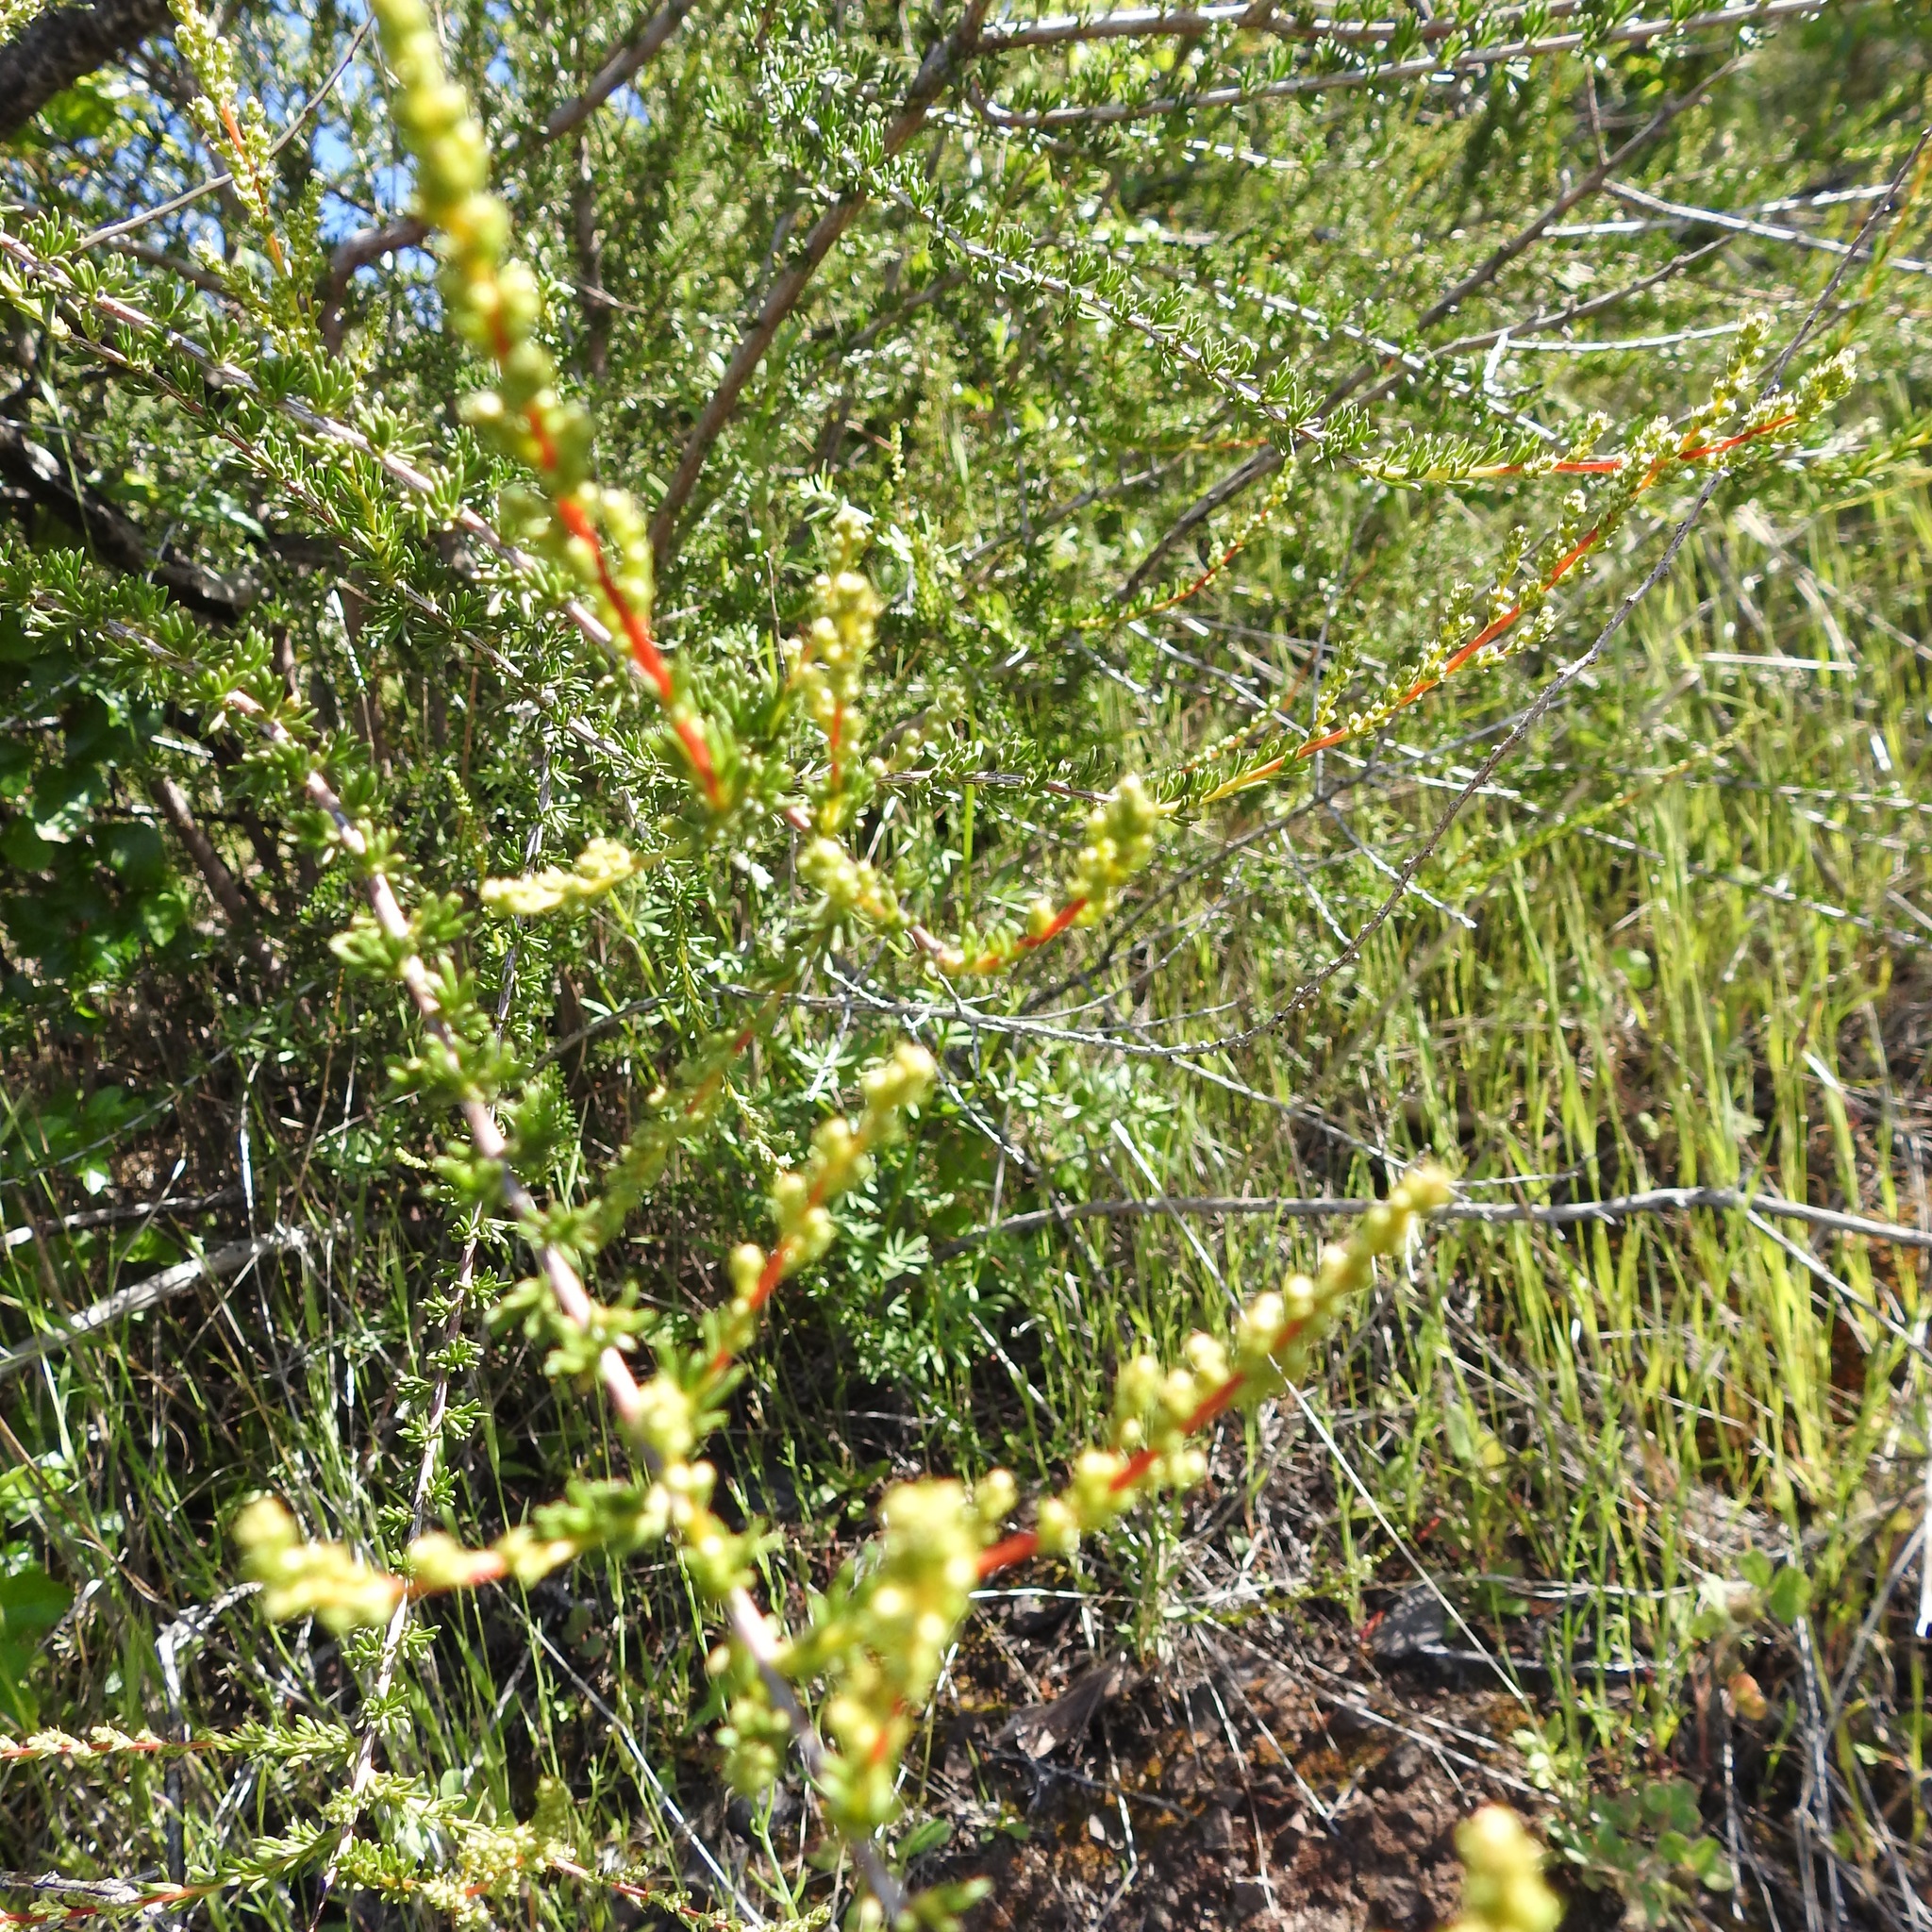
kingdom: Plantae
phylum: Tracheophyta
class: Magnoliopsida
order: Rosales
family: Rosaceae
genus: Adenostoma
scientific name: Adenostoma fasciculatum
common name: Chamise
